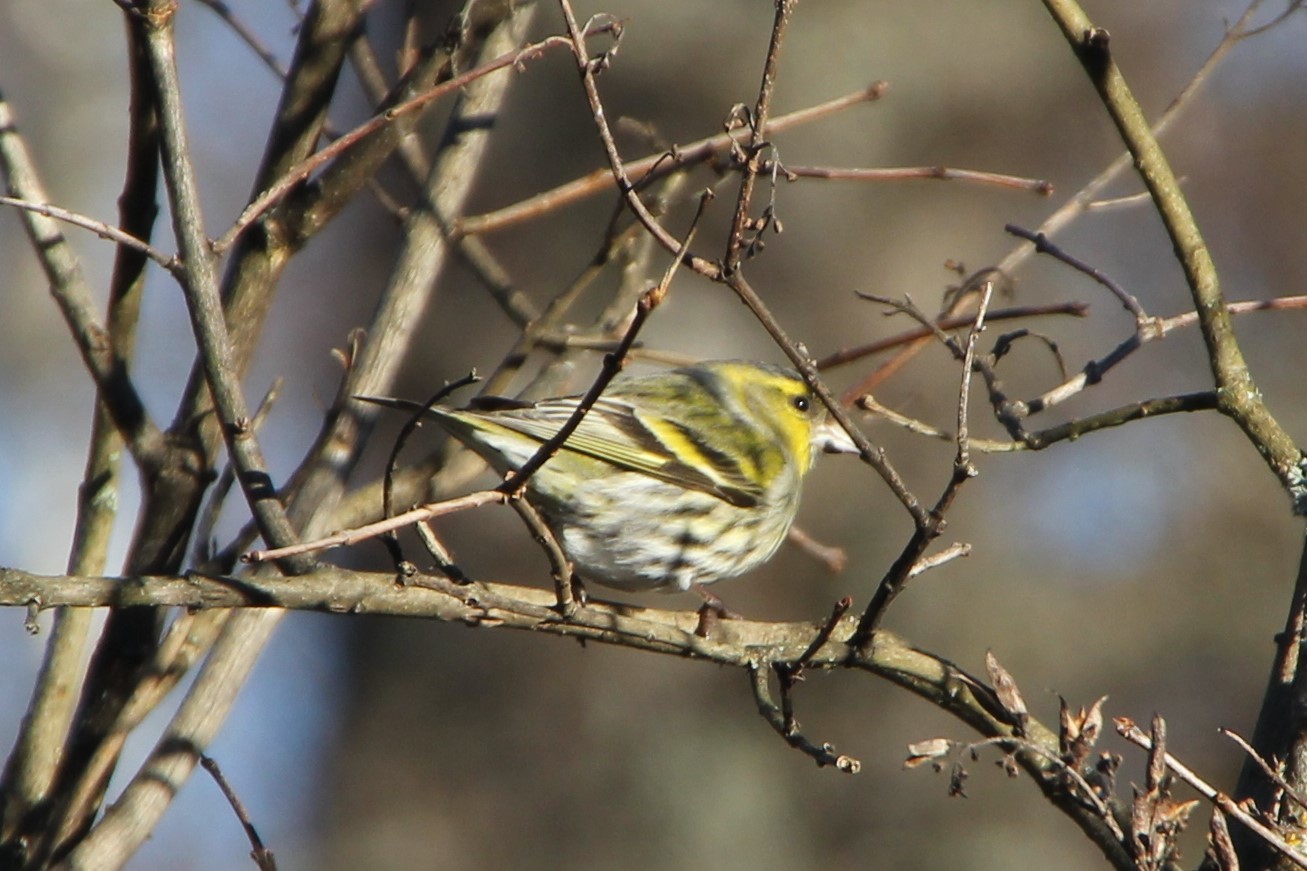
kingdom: Animalia
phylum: Chordata
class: Aves
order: Passeriformes
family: Fringillidae
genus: Spinus
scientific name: Spinus spinus
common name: Eurasian siskin
